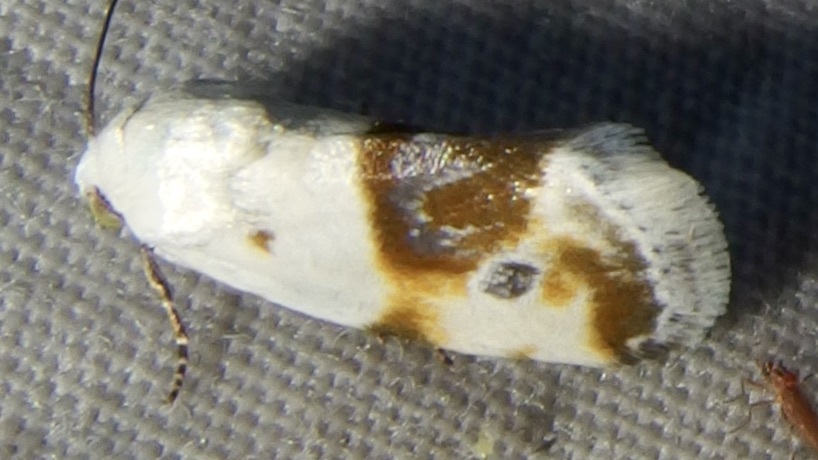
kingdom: Animalia
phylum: Arthropoda
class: Insecta
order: Lepidoptera
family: Noctuidae
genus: Acontia
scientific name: Acontia candefacta
